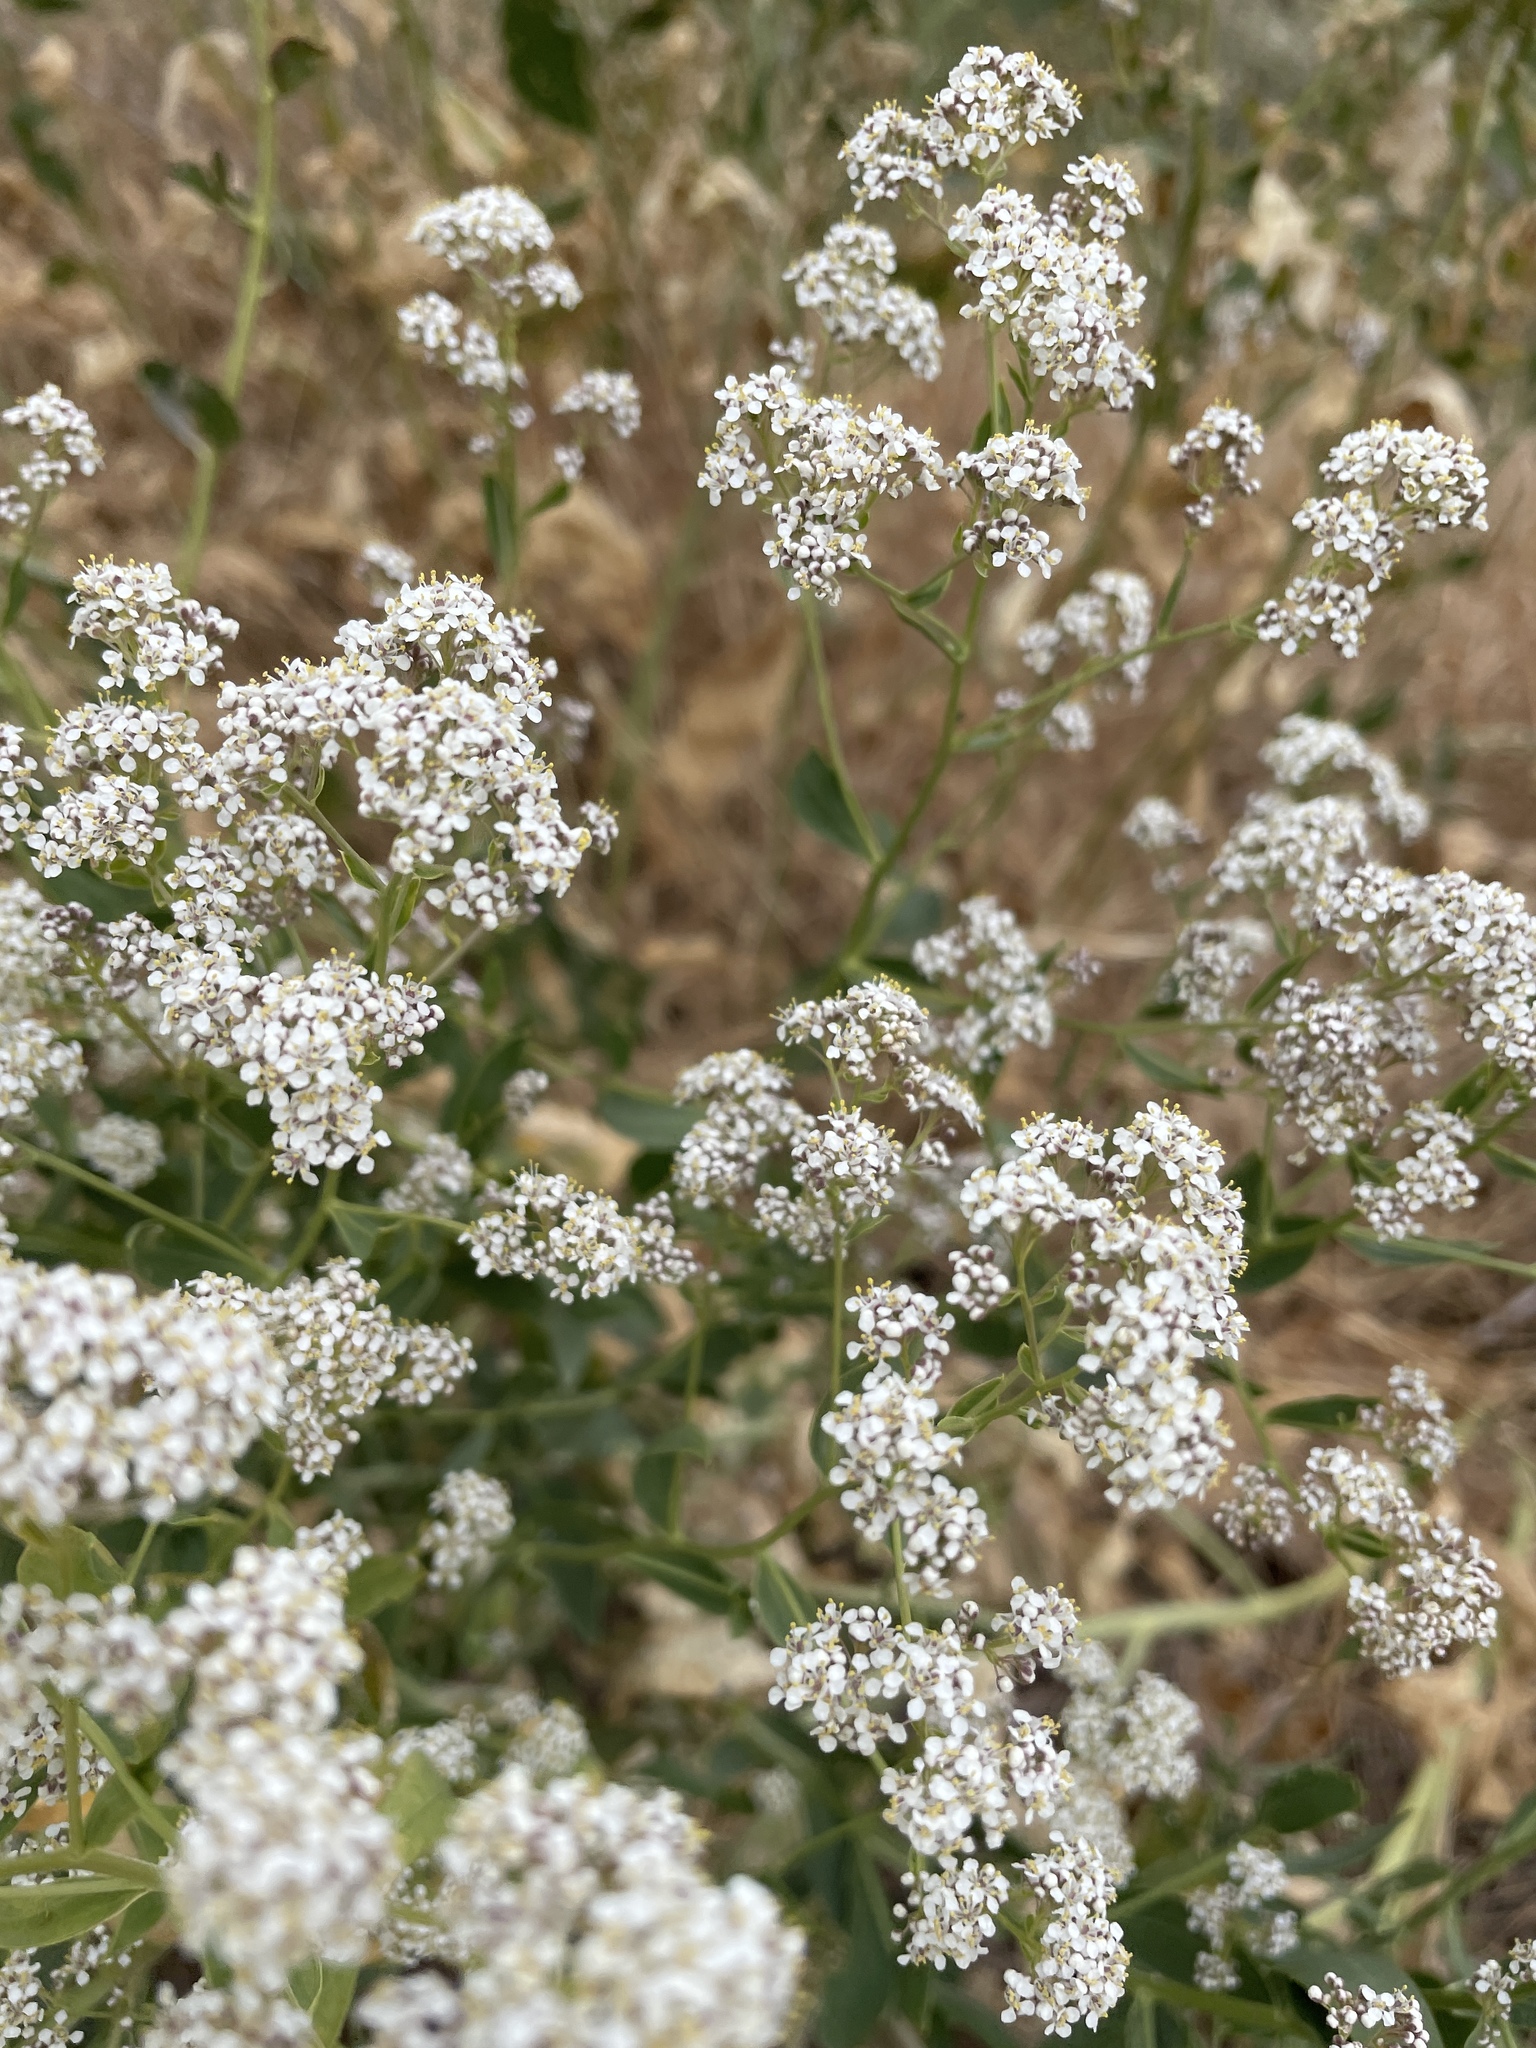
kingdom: Plantae
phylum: Tracheophyta
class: Magnoliopsida
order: Brassicales
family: Brassicaceae
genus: Lepidium
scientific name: Lepidium latifolium
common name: Dittander
